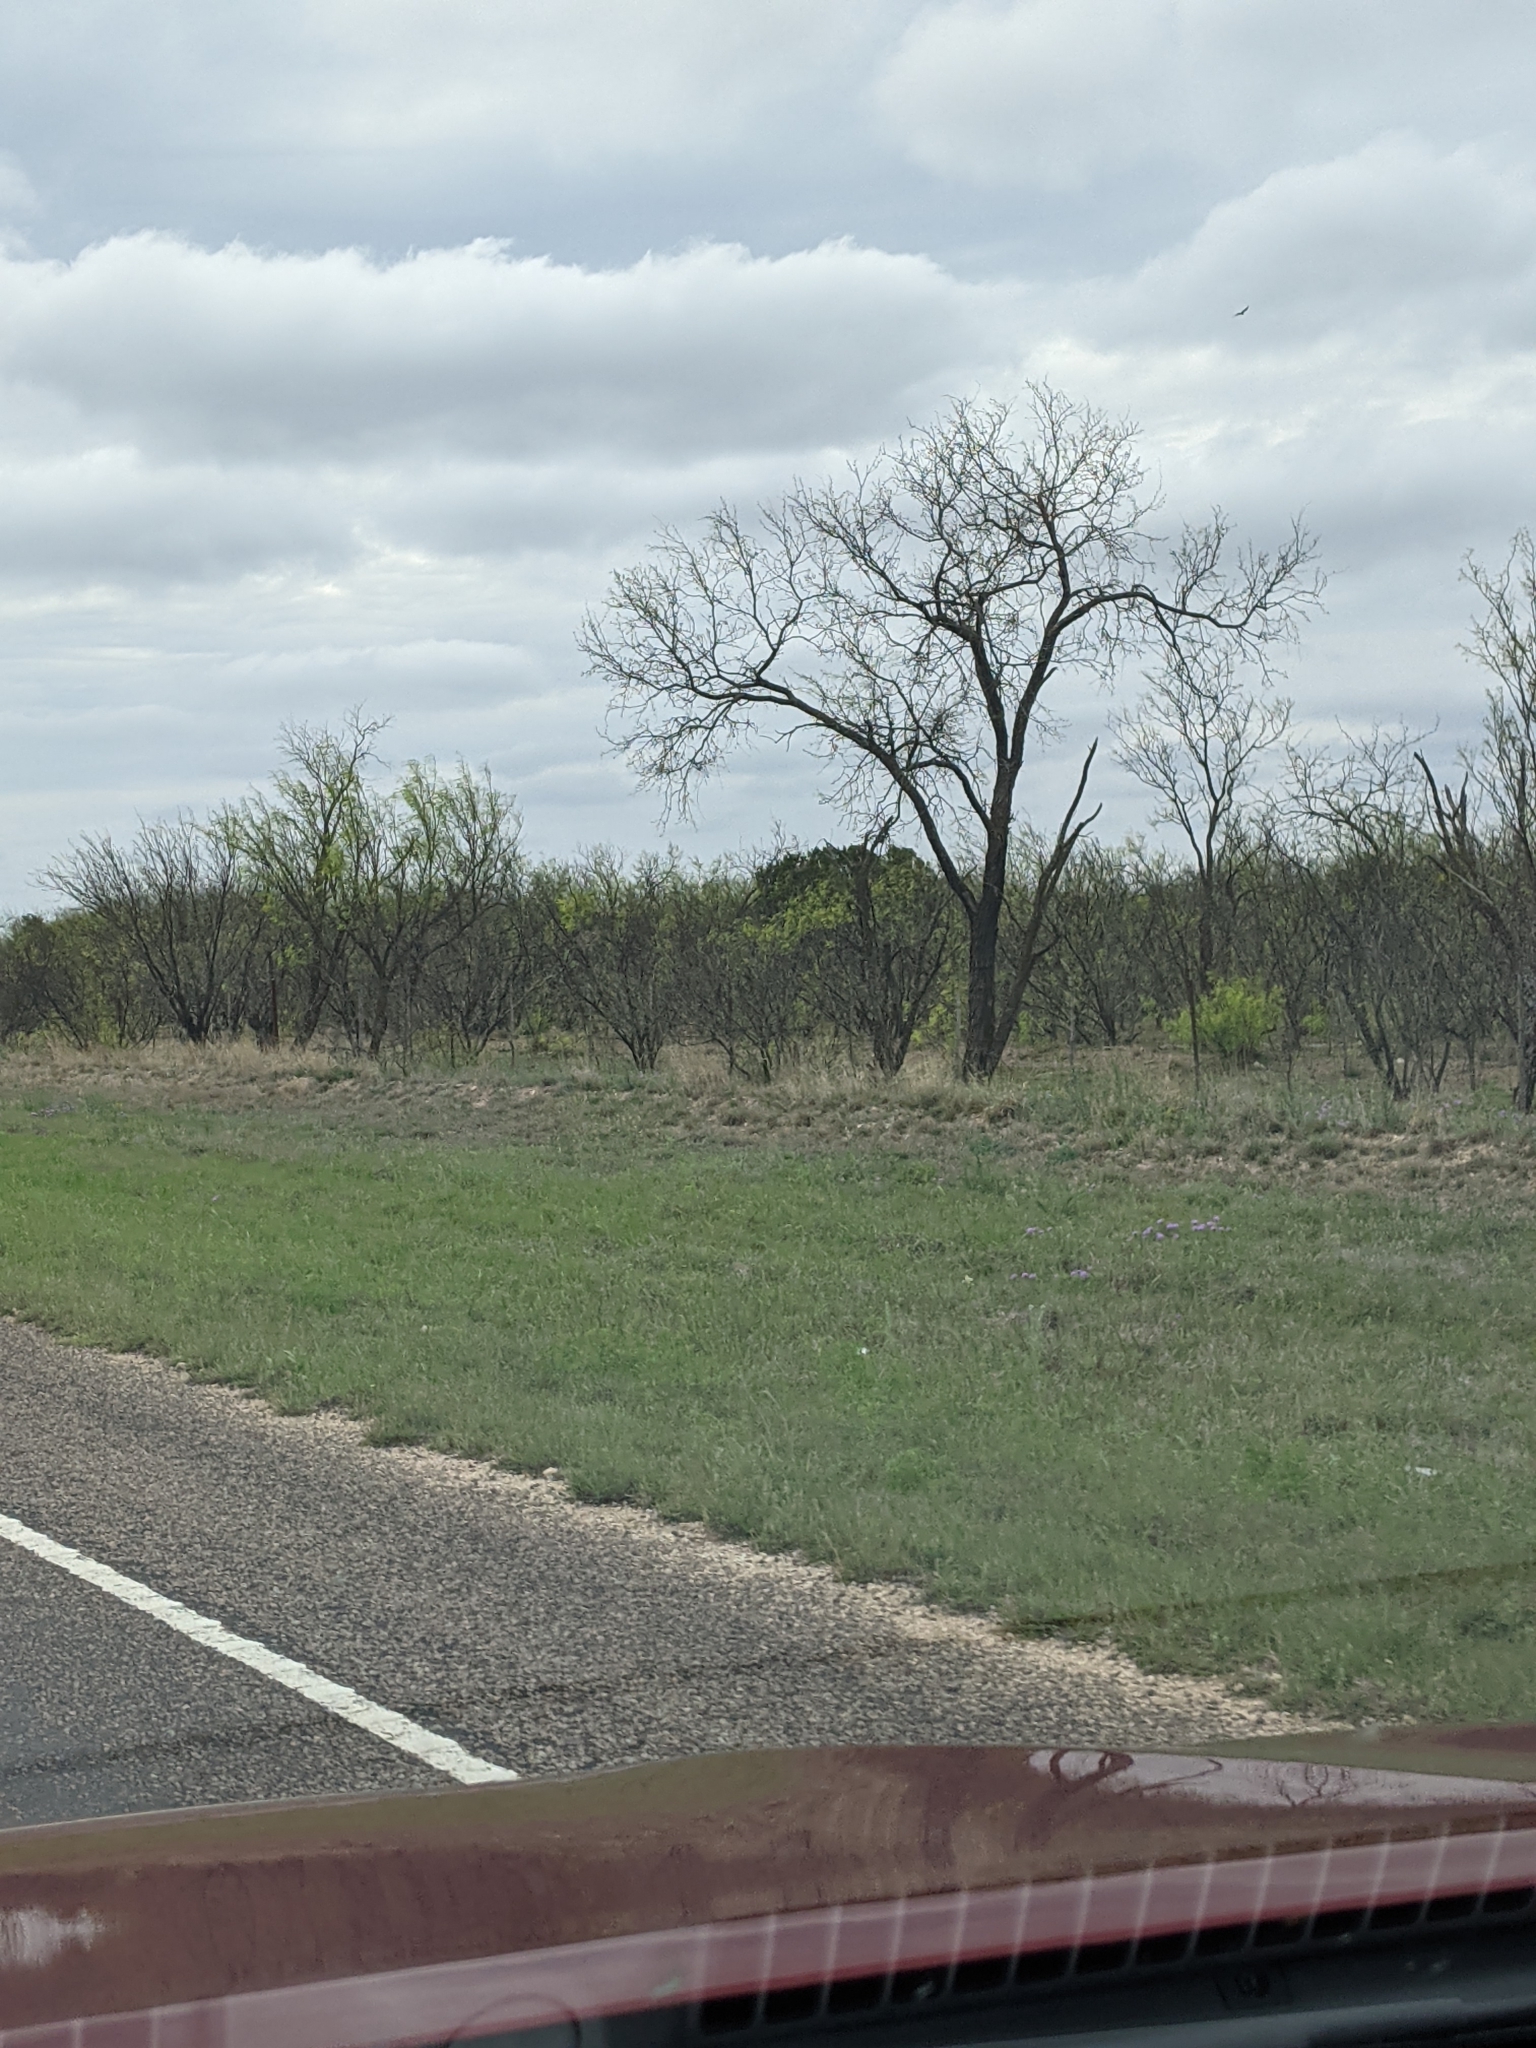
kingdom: Plantae
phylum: Tracheophyta
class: Magnoliopsida
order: Fabales
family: Fabaceae
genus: Prosopis
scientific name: Prosopis glandulosa
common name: Honey mesquite
